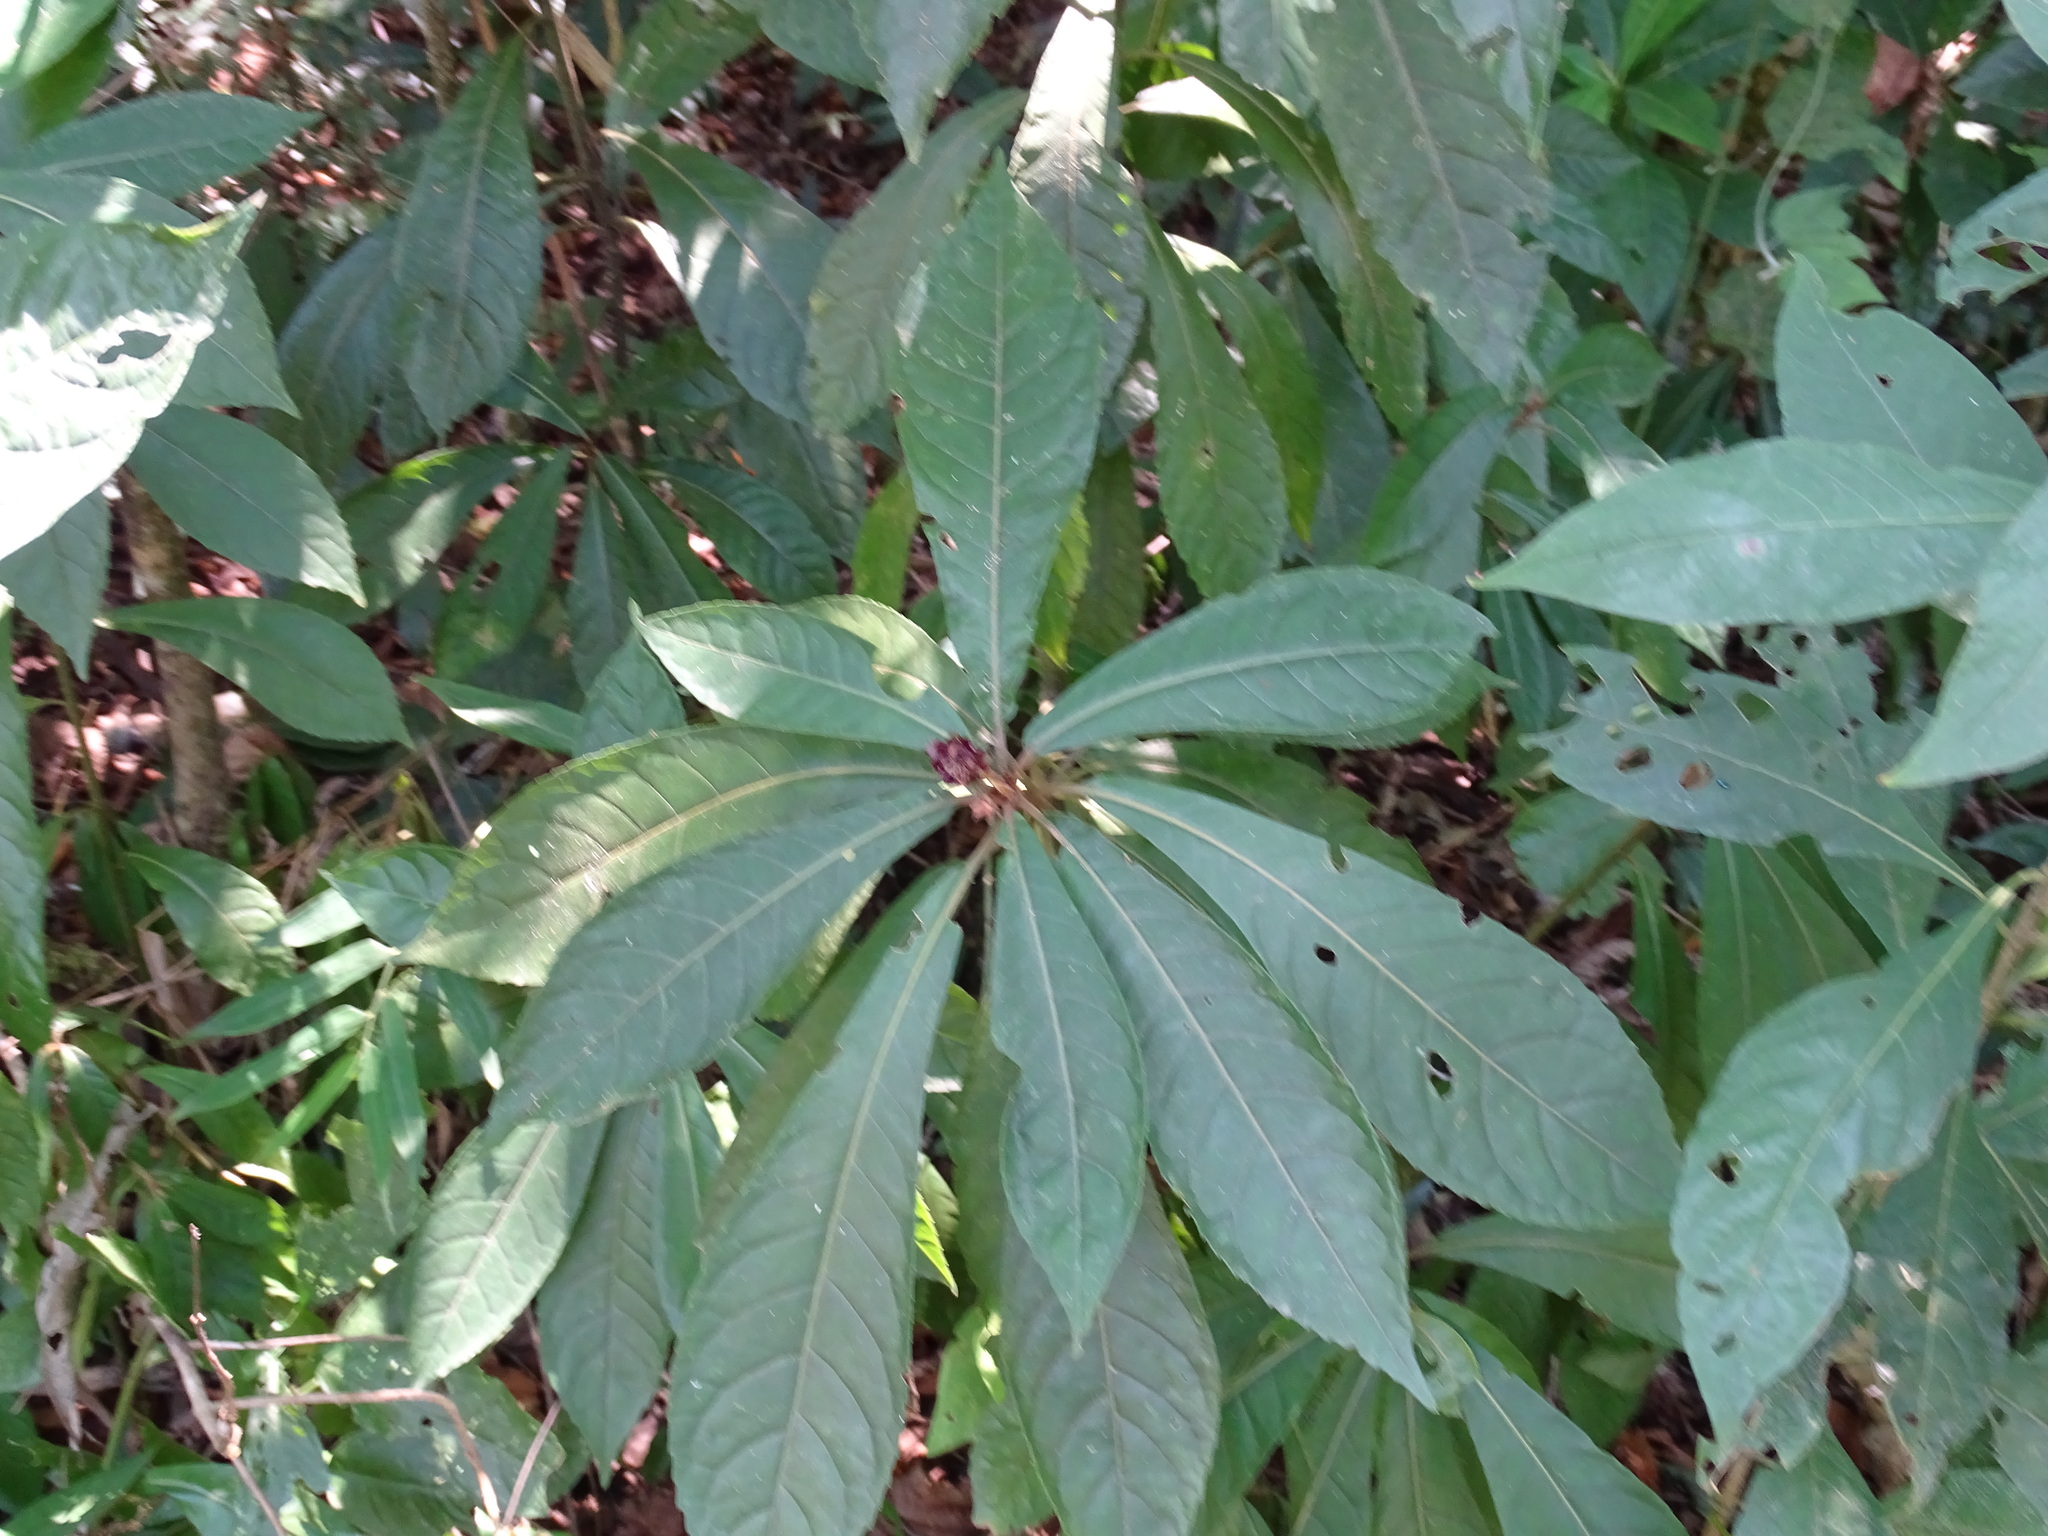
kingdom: Plantae
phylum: Tracheophyta
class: Magnoliopsida
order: Asterales
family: Asteraceae
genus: Lepidonia
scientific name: Lepidonia salvinae
